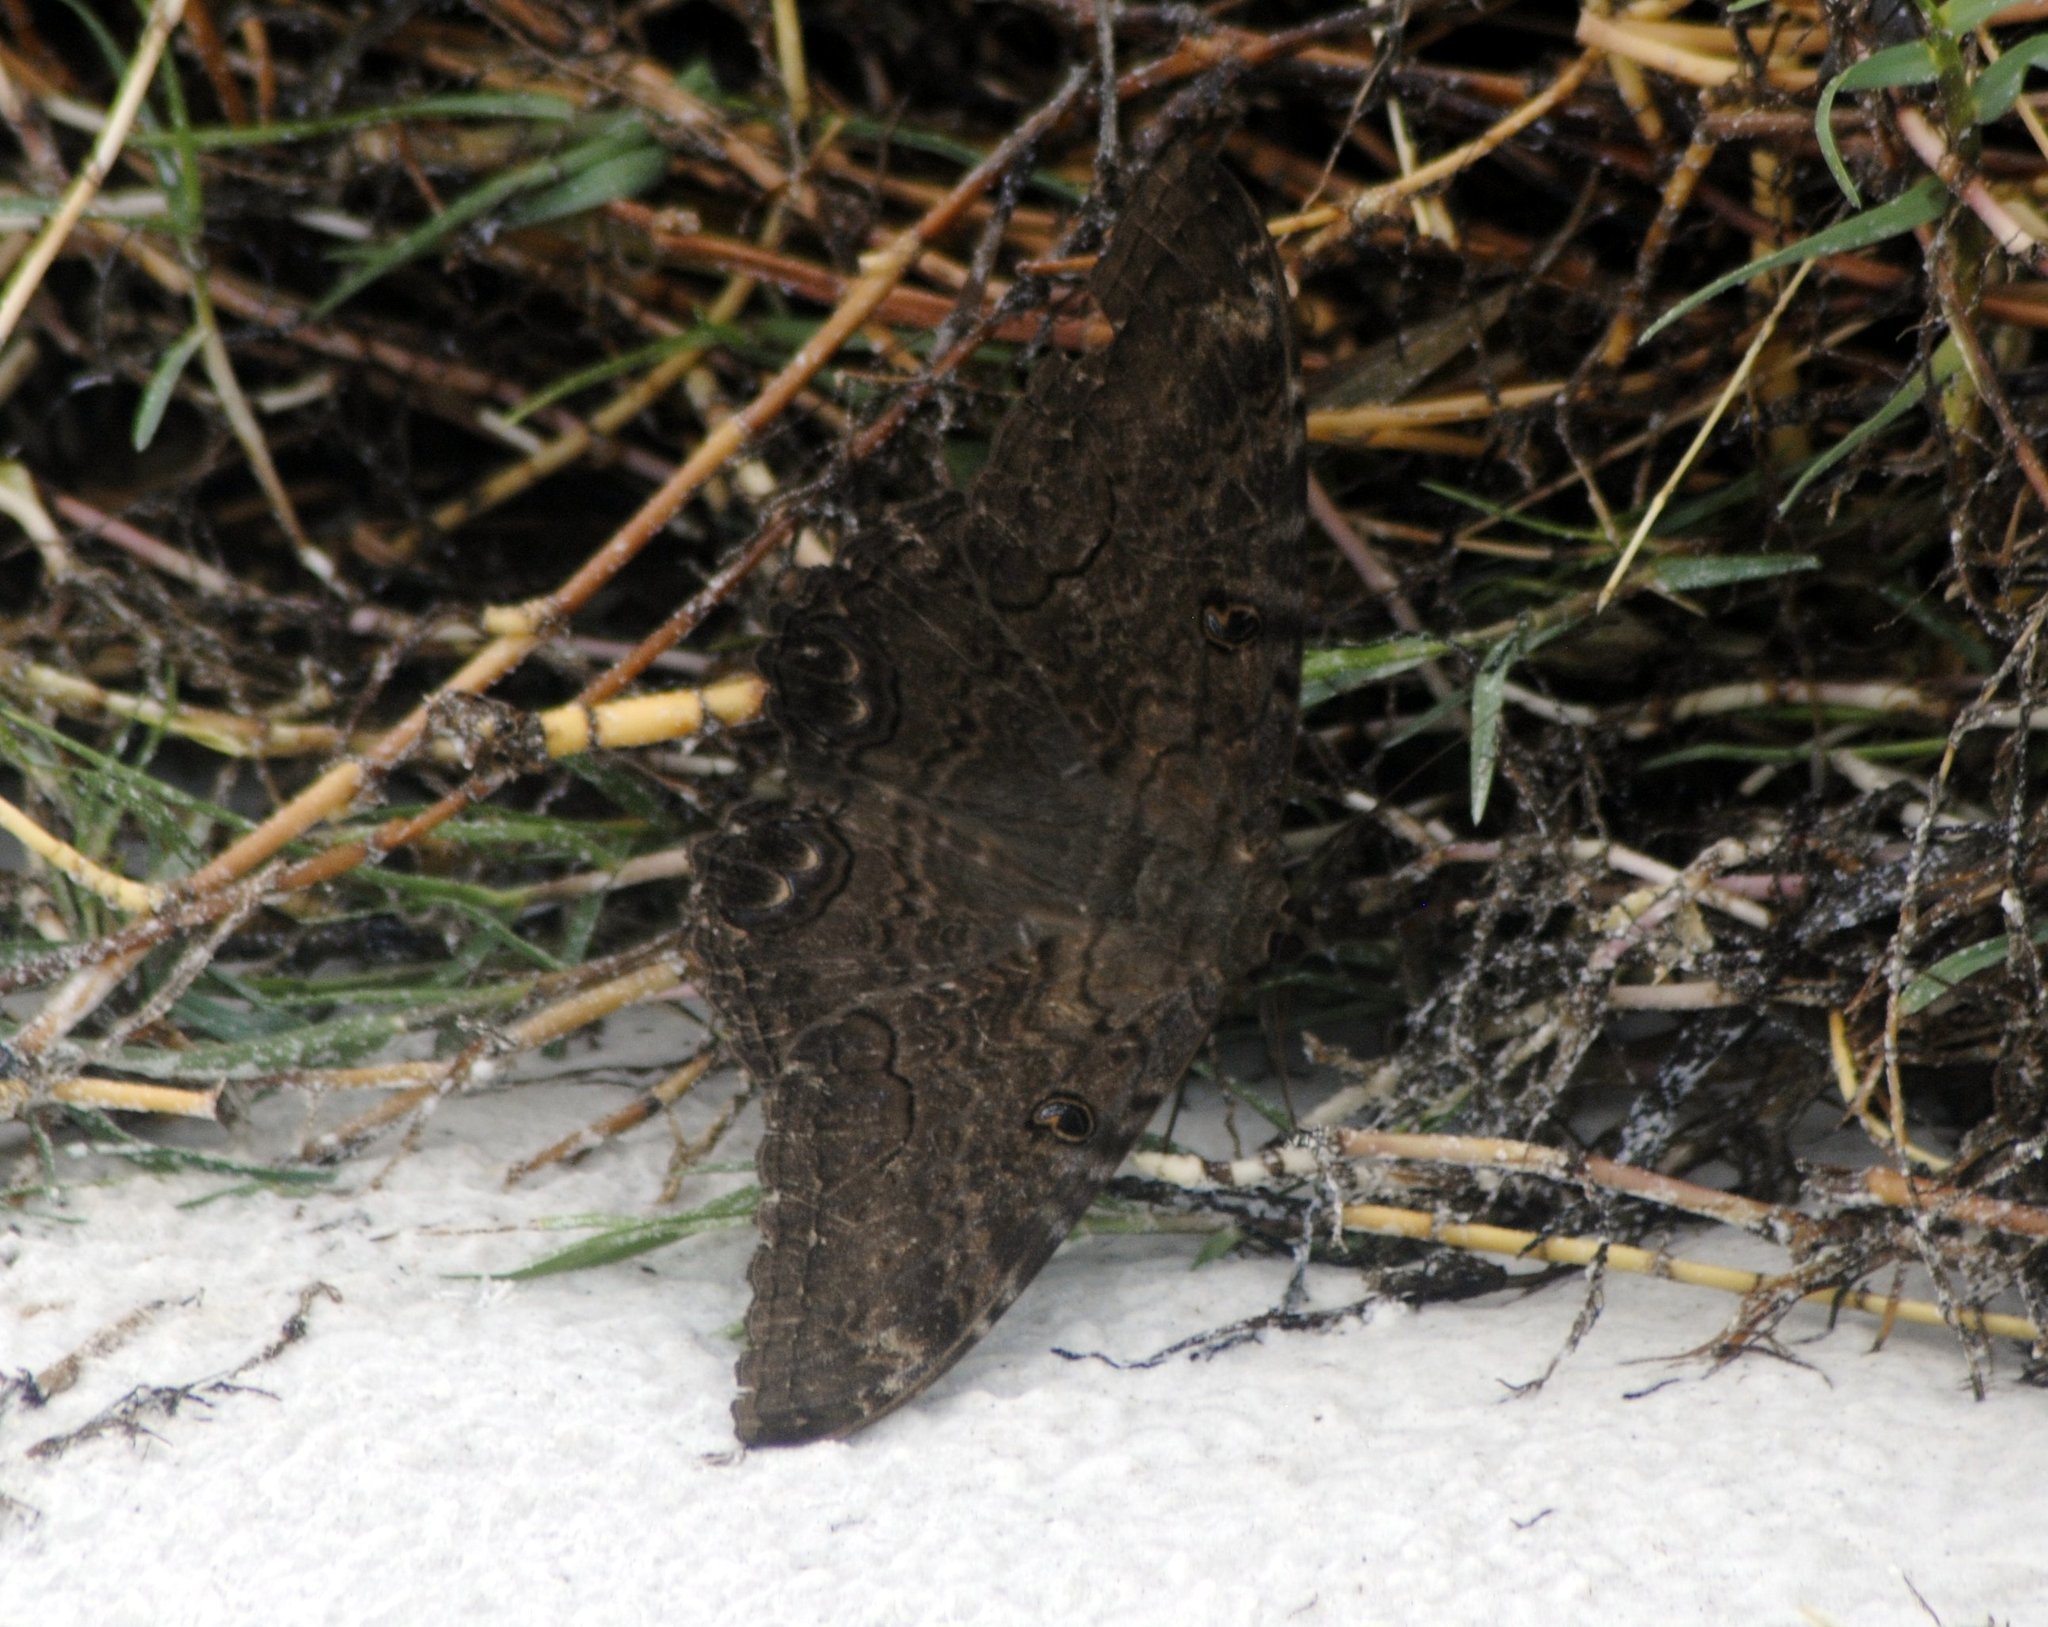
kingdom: Animalia
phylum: Arthropoda
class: Insecta
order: Lepidoptera
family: Erebidae
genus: Ascalapha
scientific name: Ascalapha odorata
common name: Black witch
